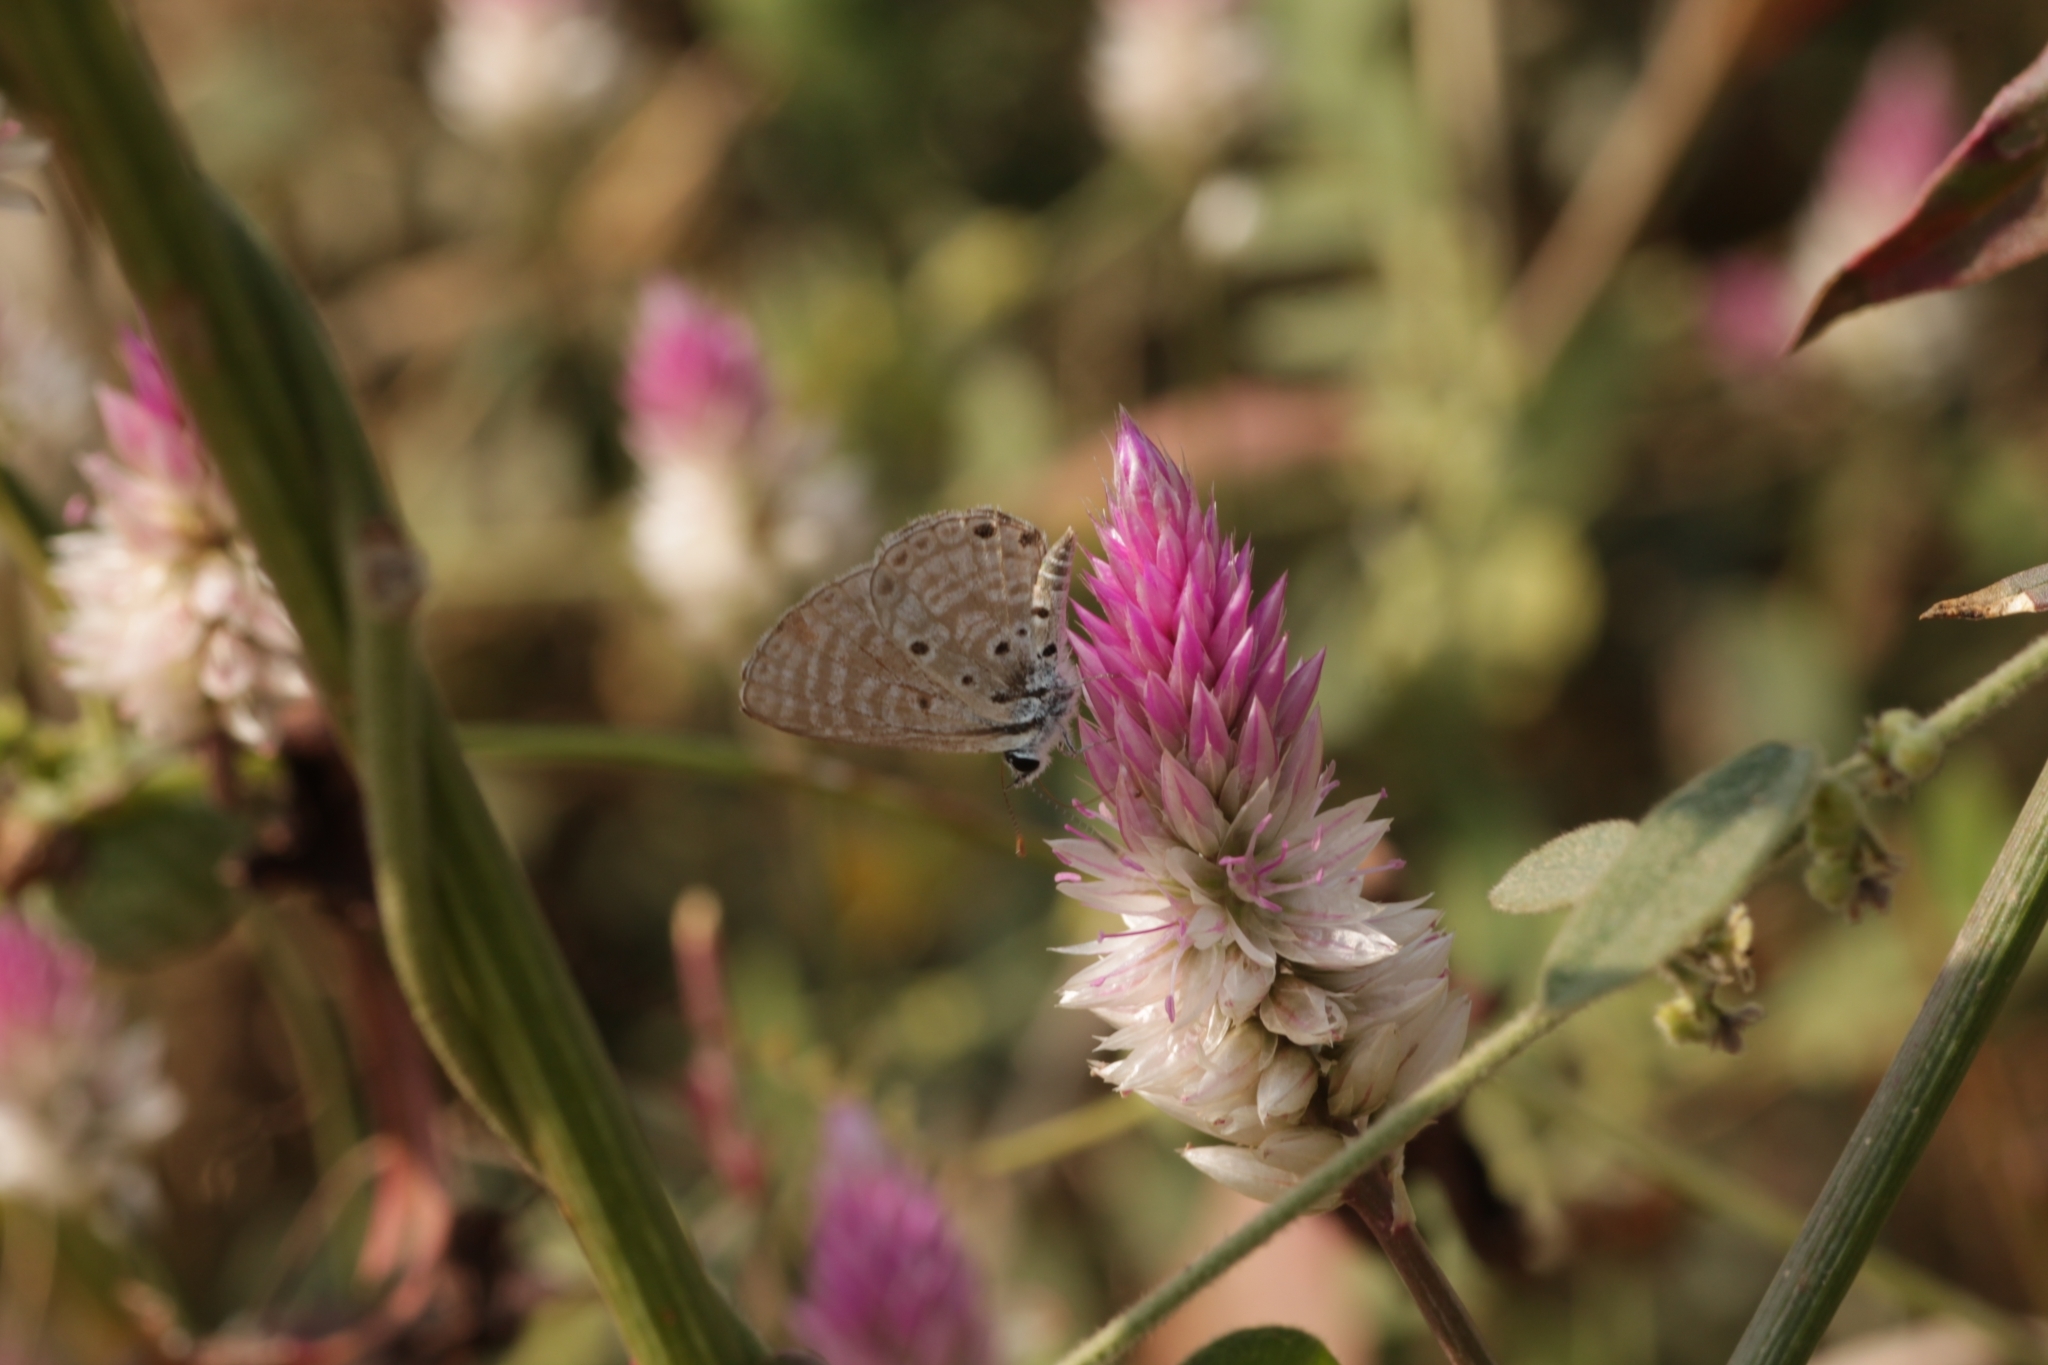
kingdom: Animalia
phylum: Arthropoda
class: Insecta
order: Lepidoptera
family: Lycaenidae
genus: Azanus
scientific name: Azanus jesous
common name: African babul blue
